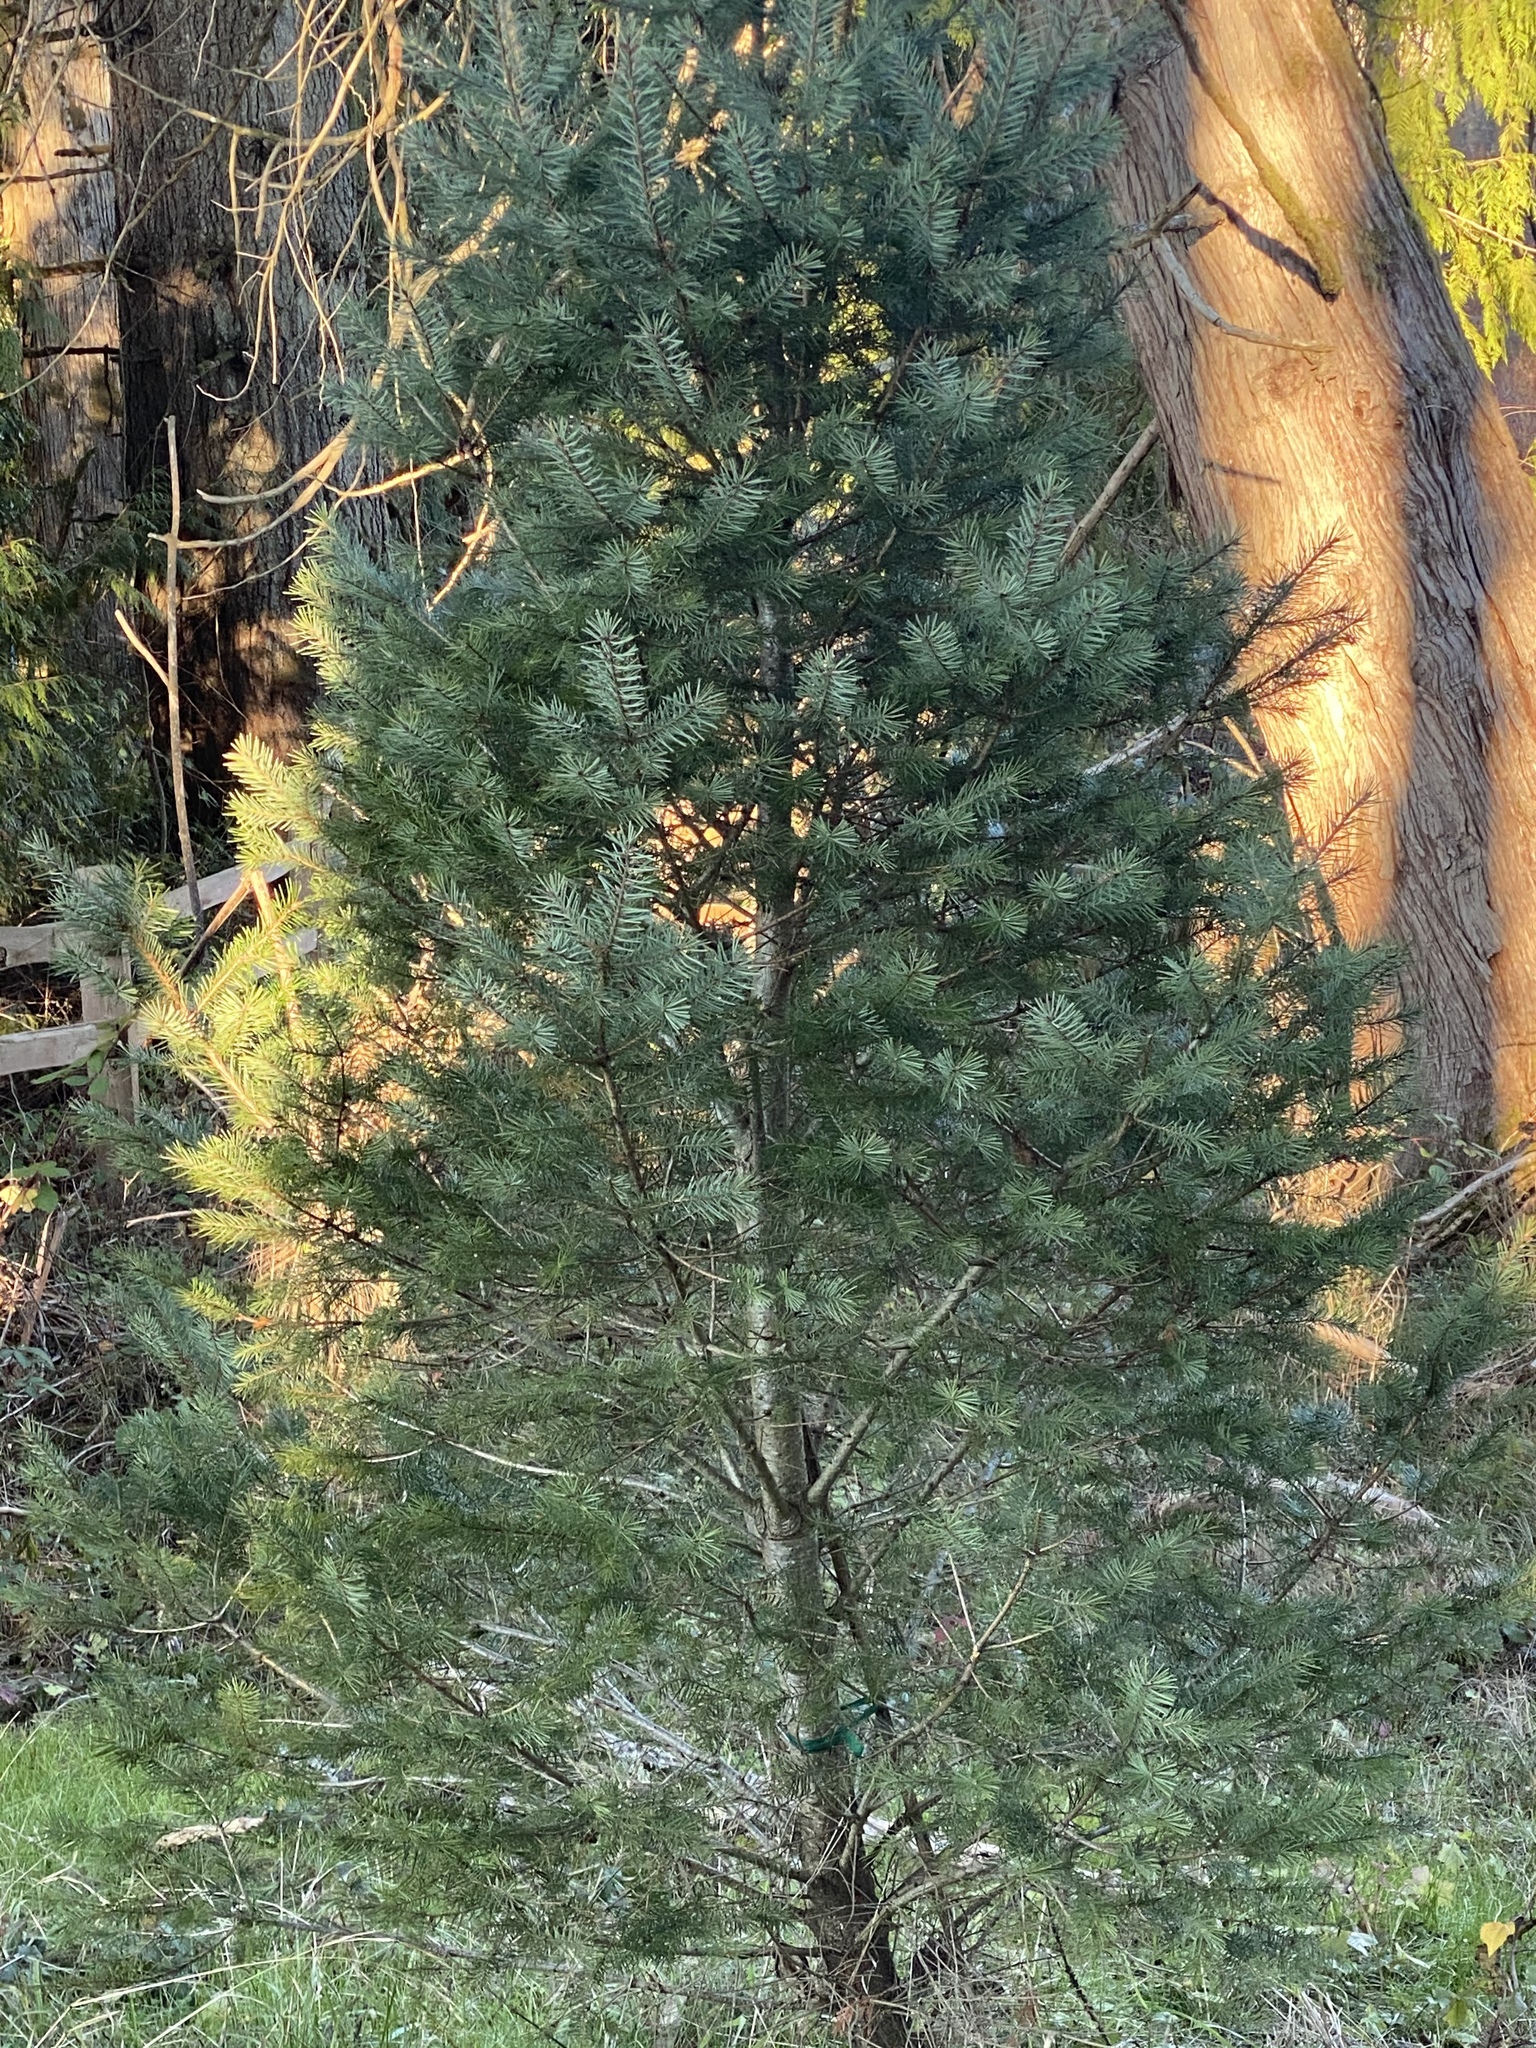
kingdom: Plantae
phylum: Tracheophyta
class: Pinopsida
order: Pinales
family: Pinaceae
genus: Pseudotsuga
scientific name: Pseudotsuga menziesii
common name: Douglas fir
